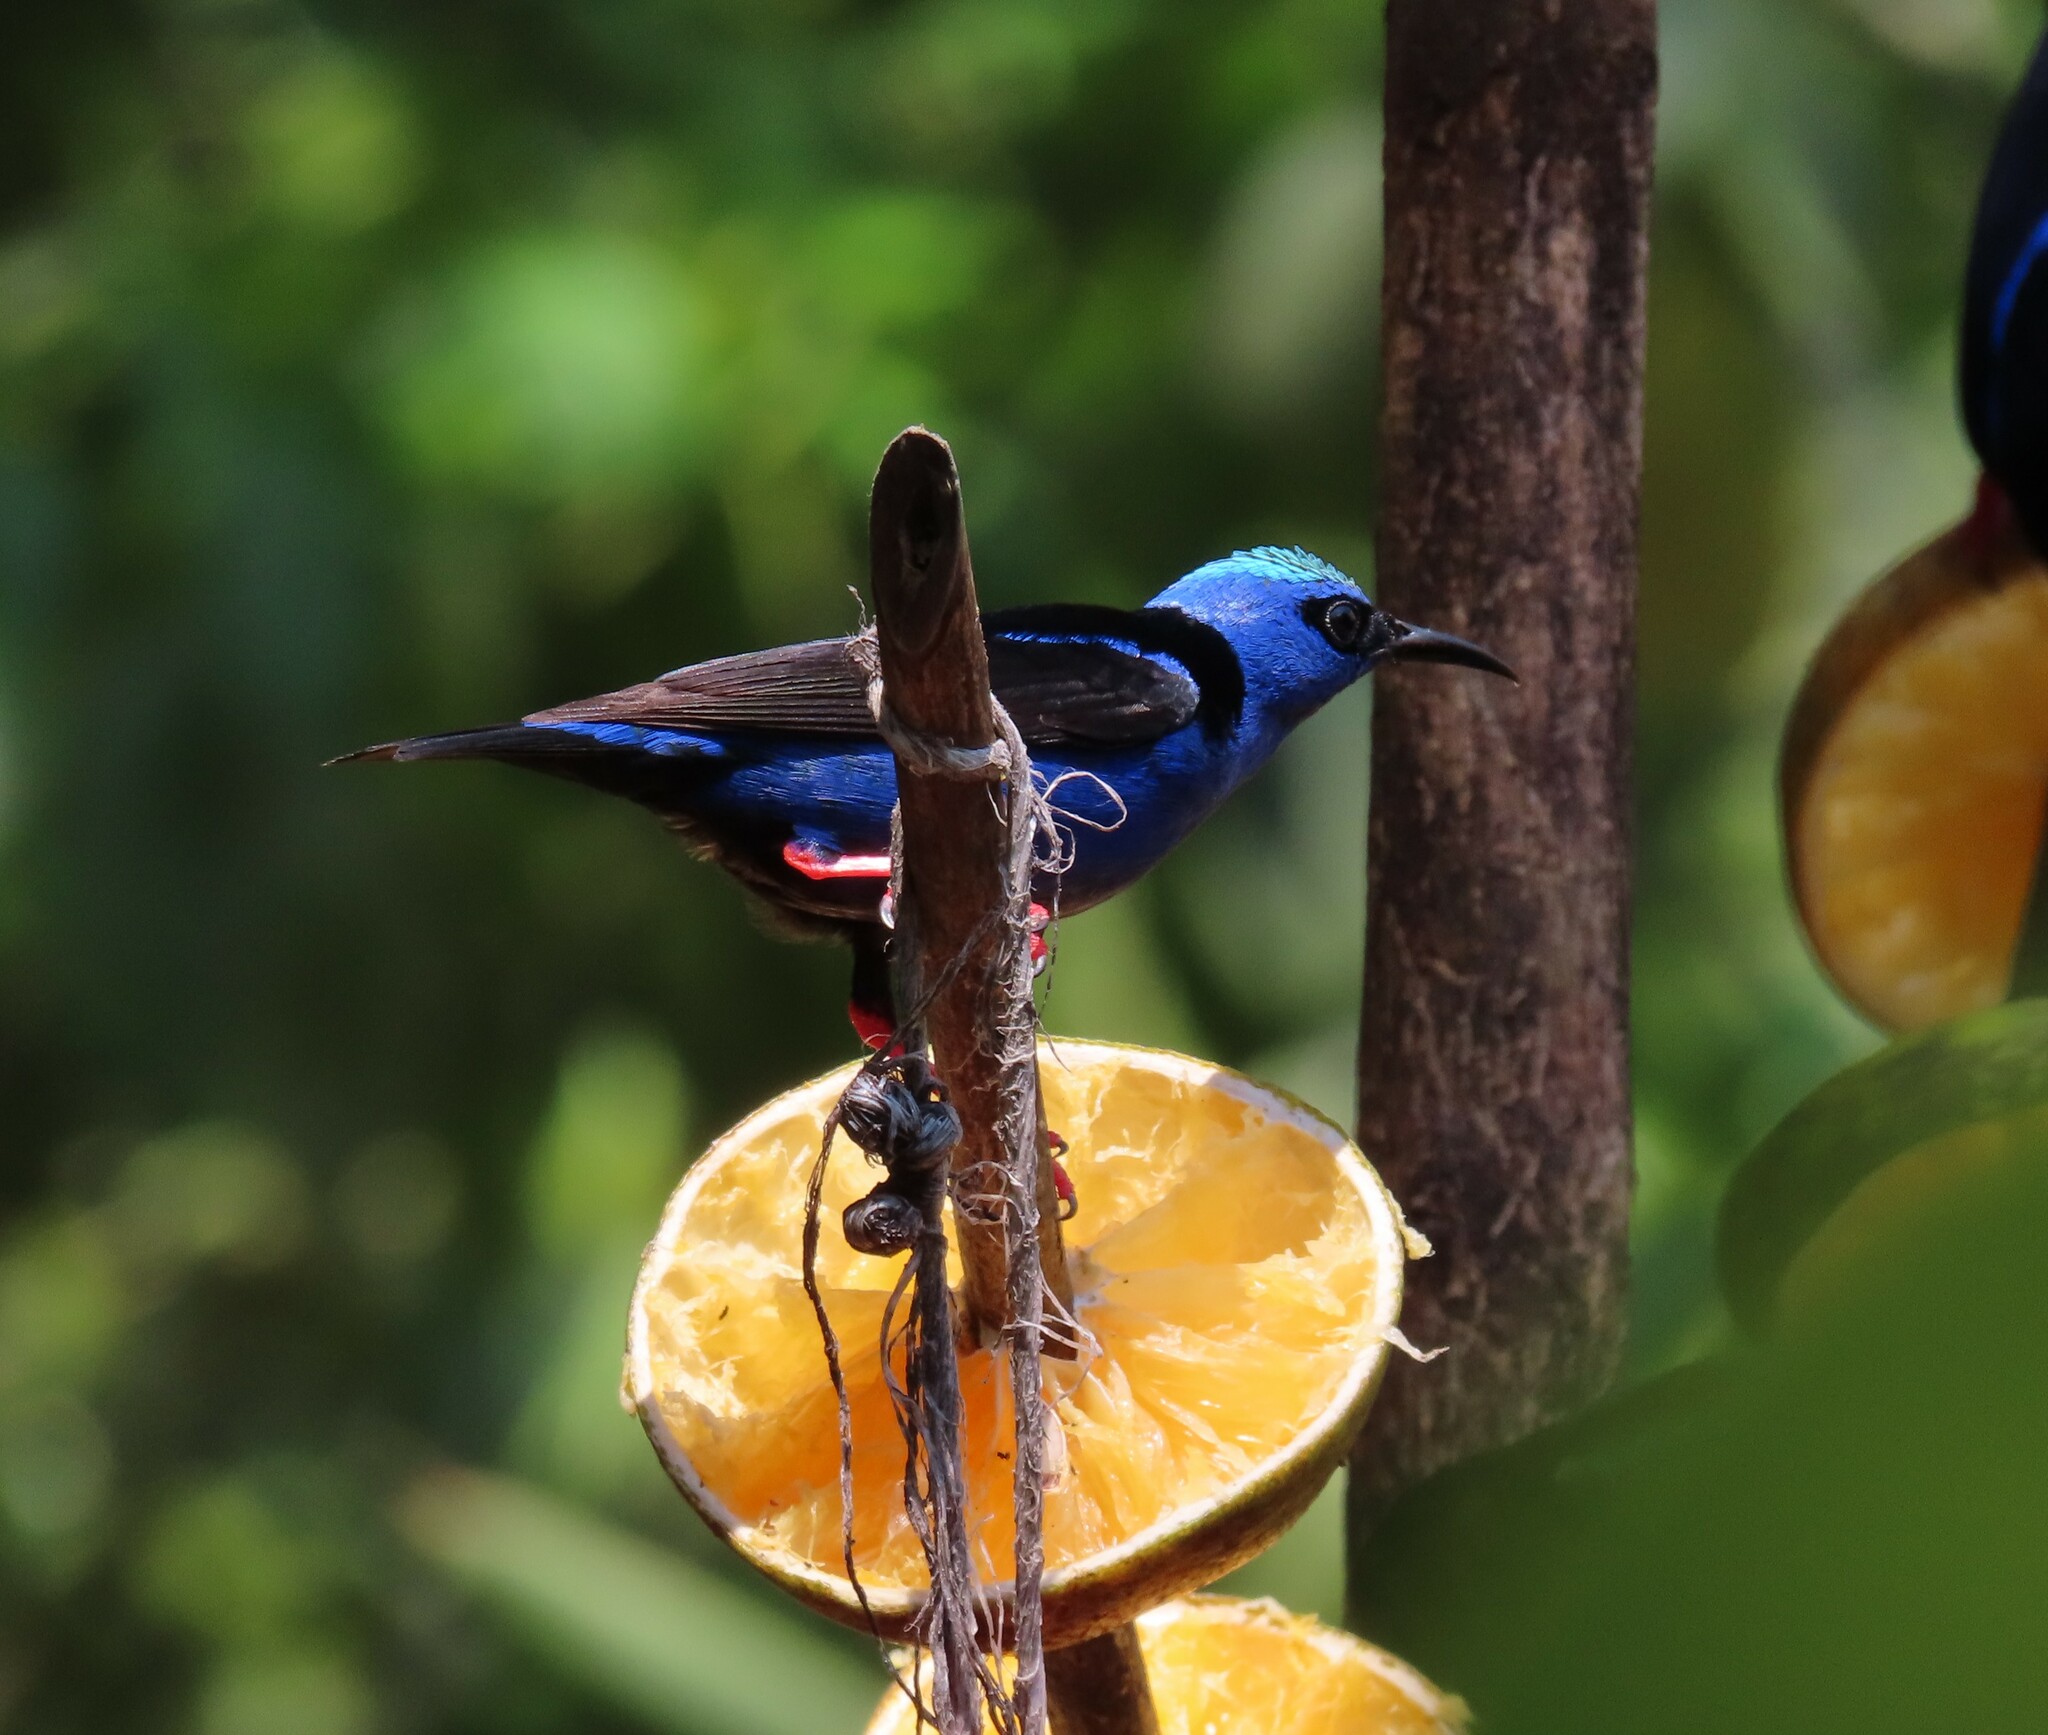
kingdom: Animalia
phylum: Chordata
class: Aves
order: Passeriformes
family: Thraupidae
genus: Cyanerpes
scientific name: Cyanerpes cyaneus
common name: Red-legged honeycreeper
